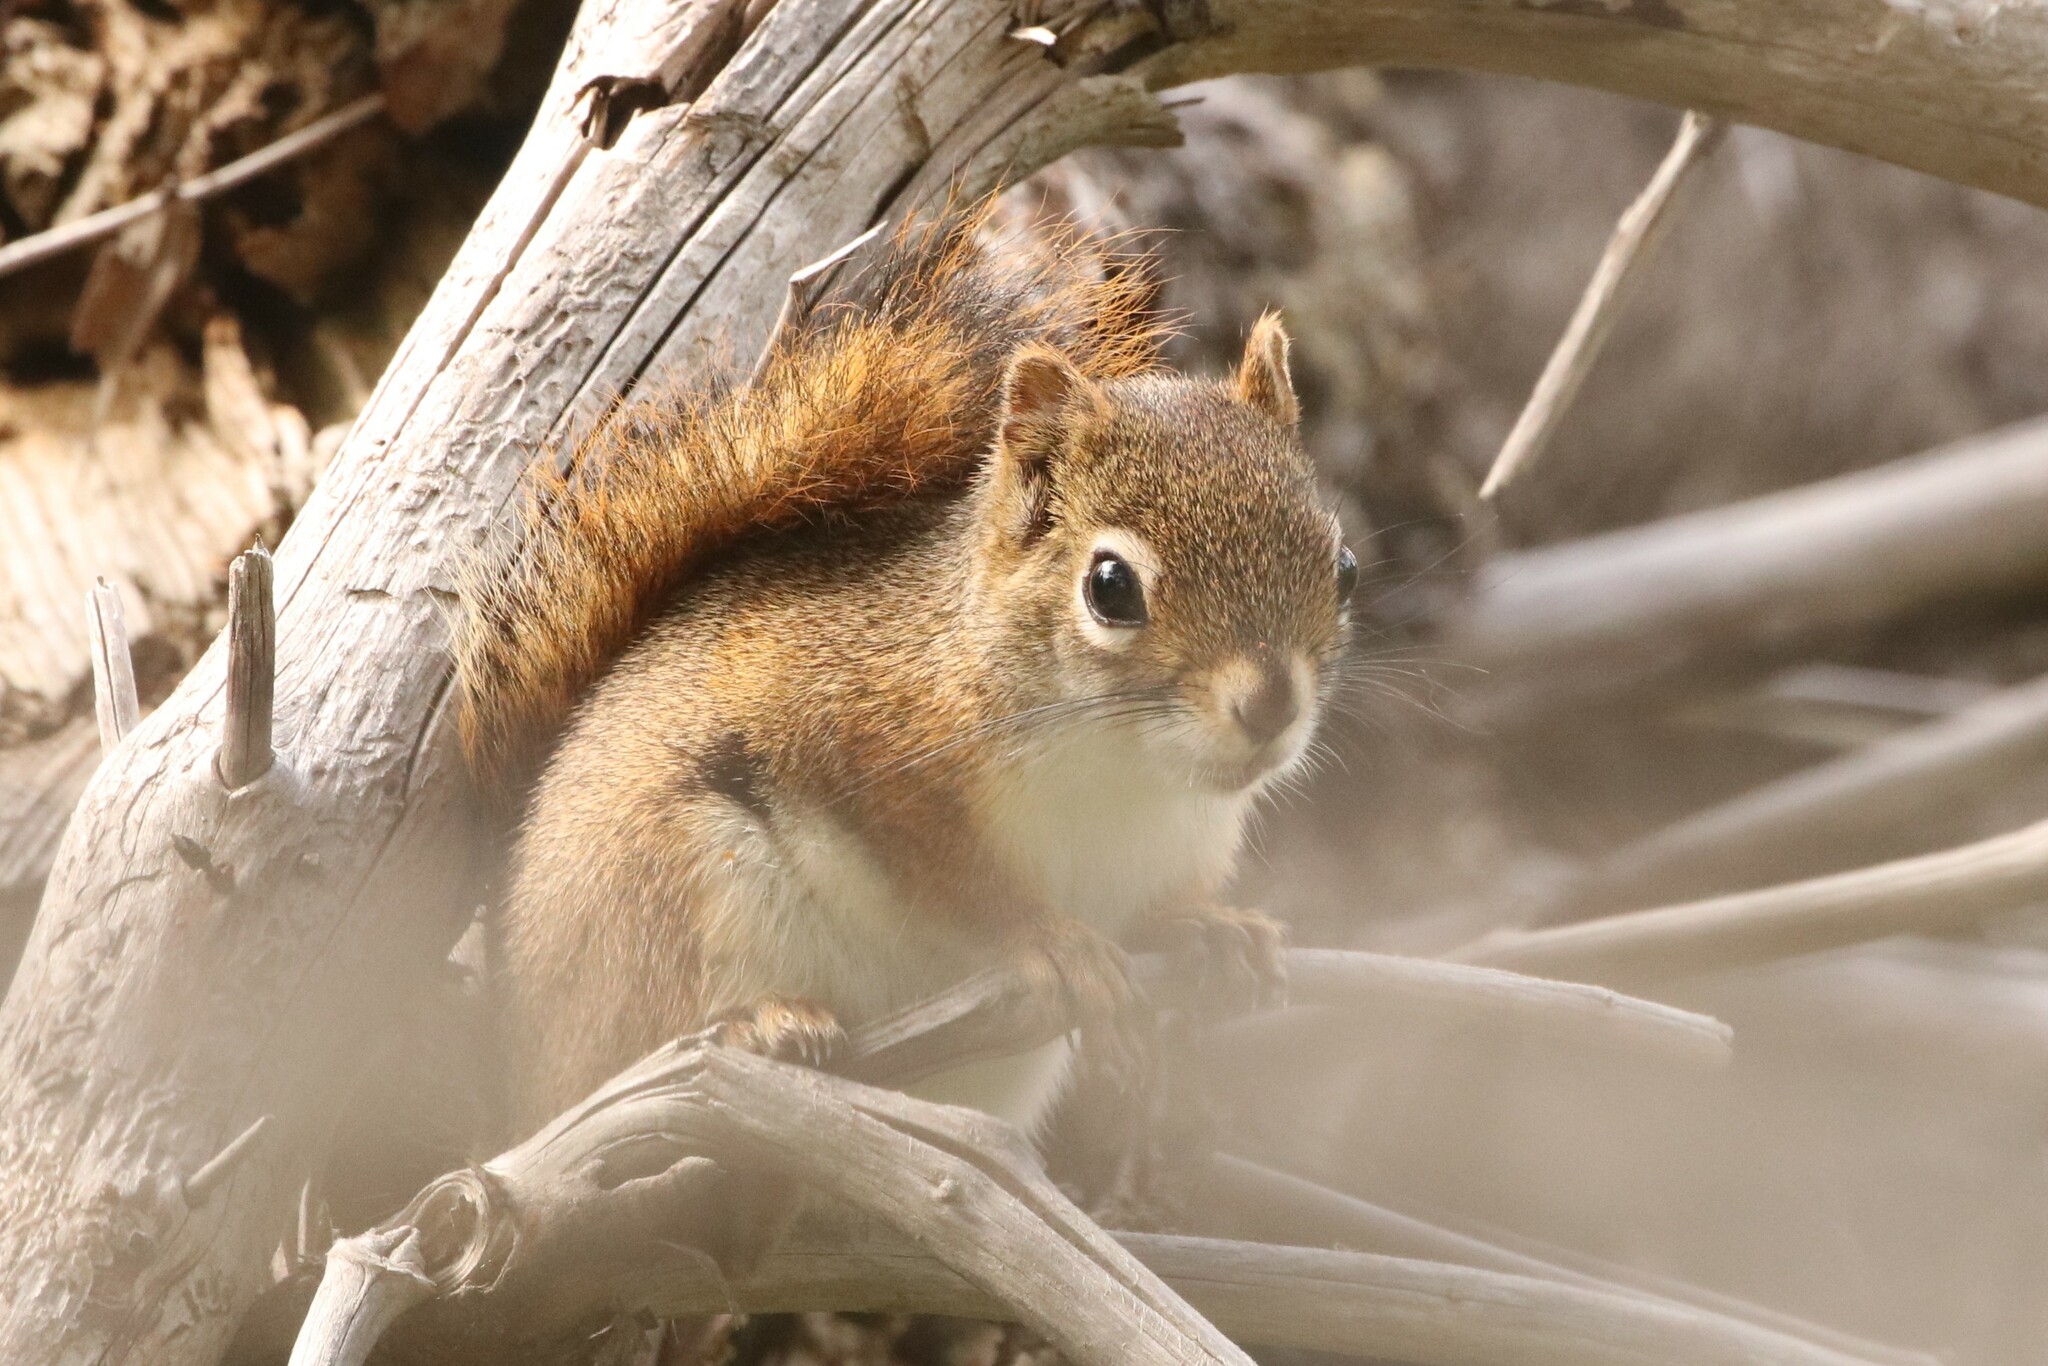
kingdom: Animalia
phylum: Chordata
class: Mammalia
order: Rodentia
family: Sciuridae
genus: Tamiasciurus
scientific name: Tamiasciurus hudsonicus
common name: Red squirrel
